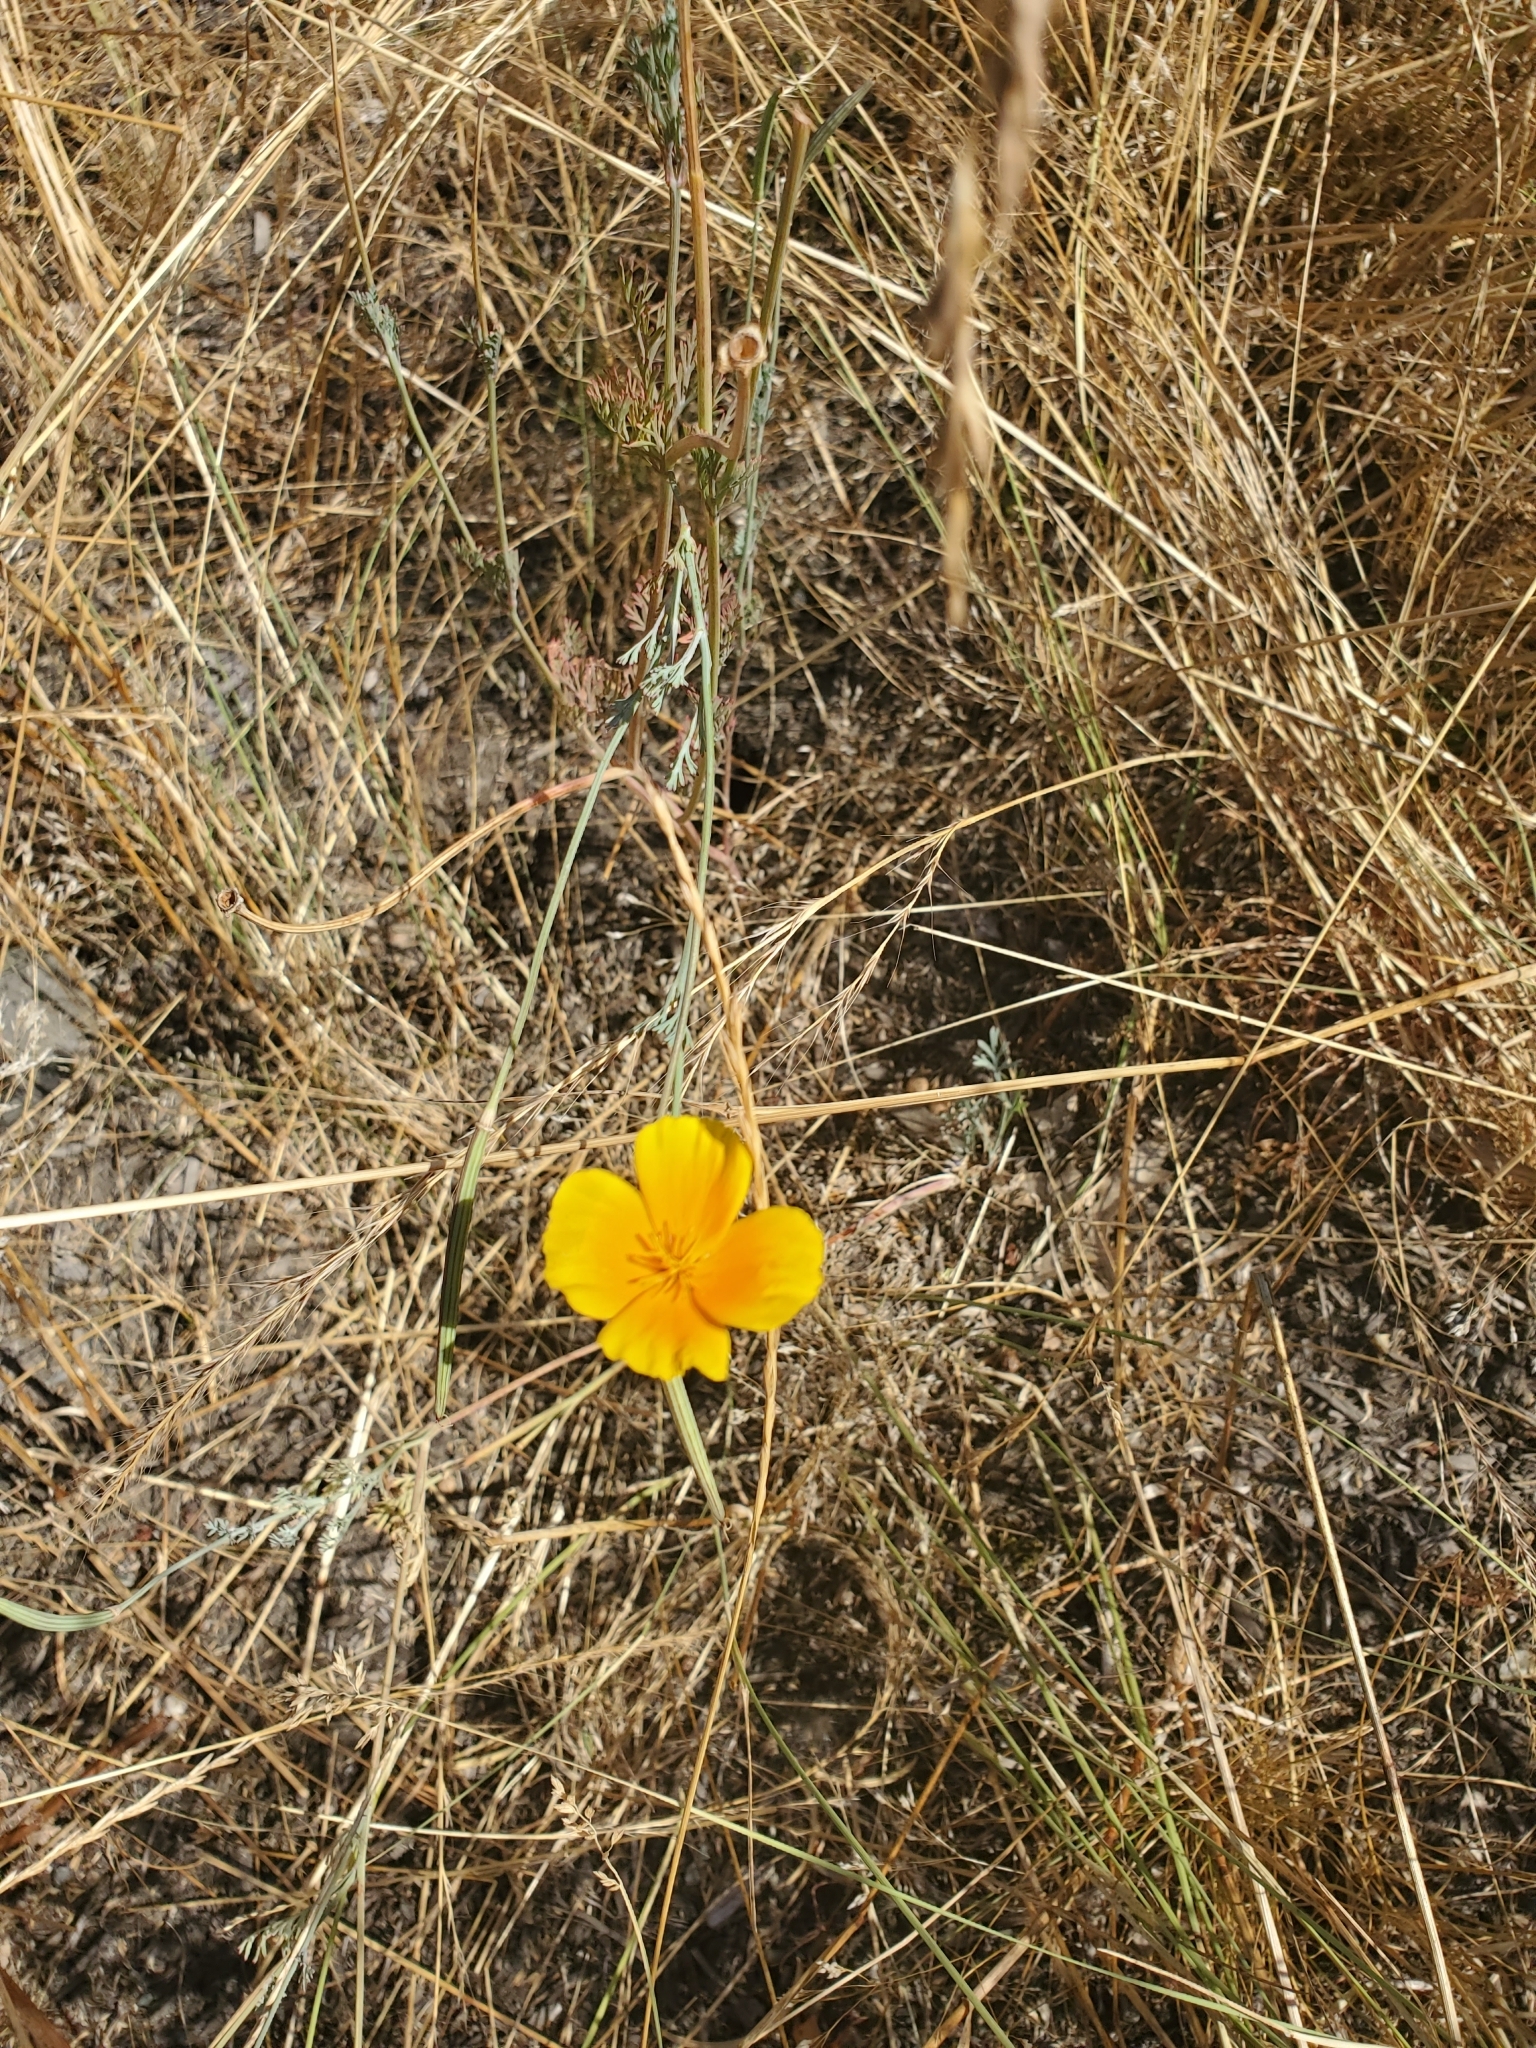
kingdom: Plantae
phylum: Tracheophyta
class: Magnoliopsida
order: Ranunculales
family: Papaveraceae
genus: Eschscholzia
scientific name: Eschscholzia californica
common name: California poppy
